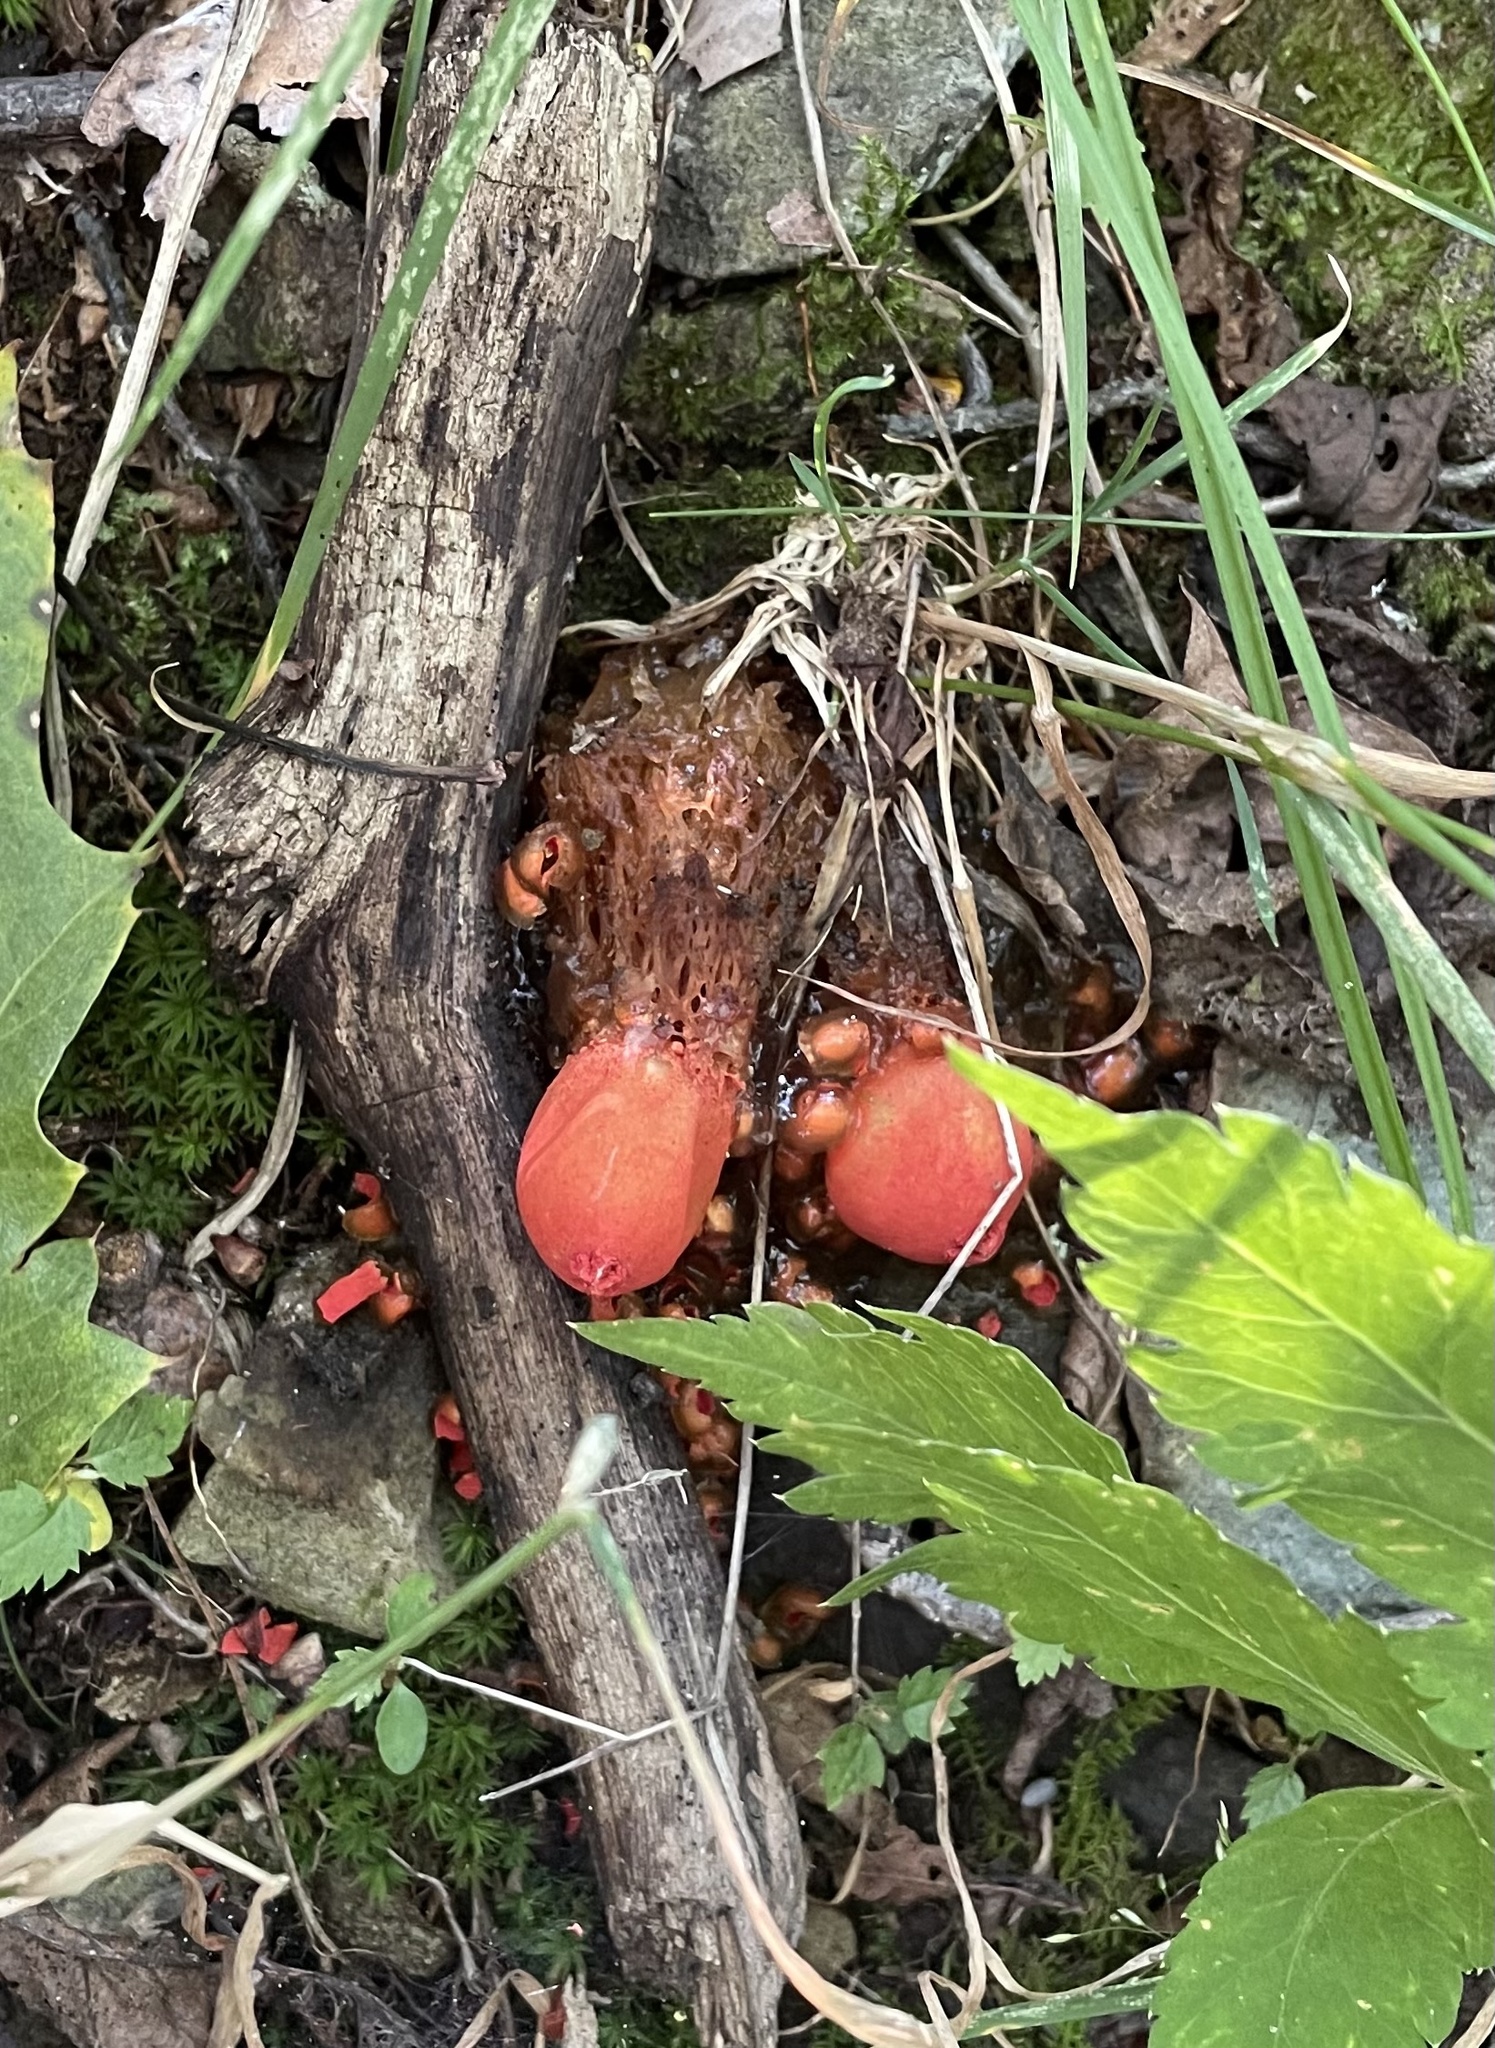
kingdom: Fungi
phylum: Basidiomycota
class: Agaricomycetes
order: Boletales
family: Calostomataceae
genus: Calostoma
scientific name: Calostoma cinnabarinum
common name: Stalked puffball-in-aspic
